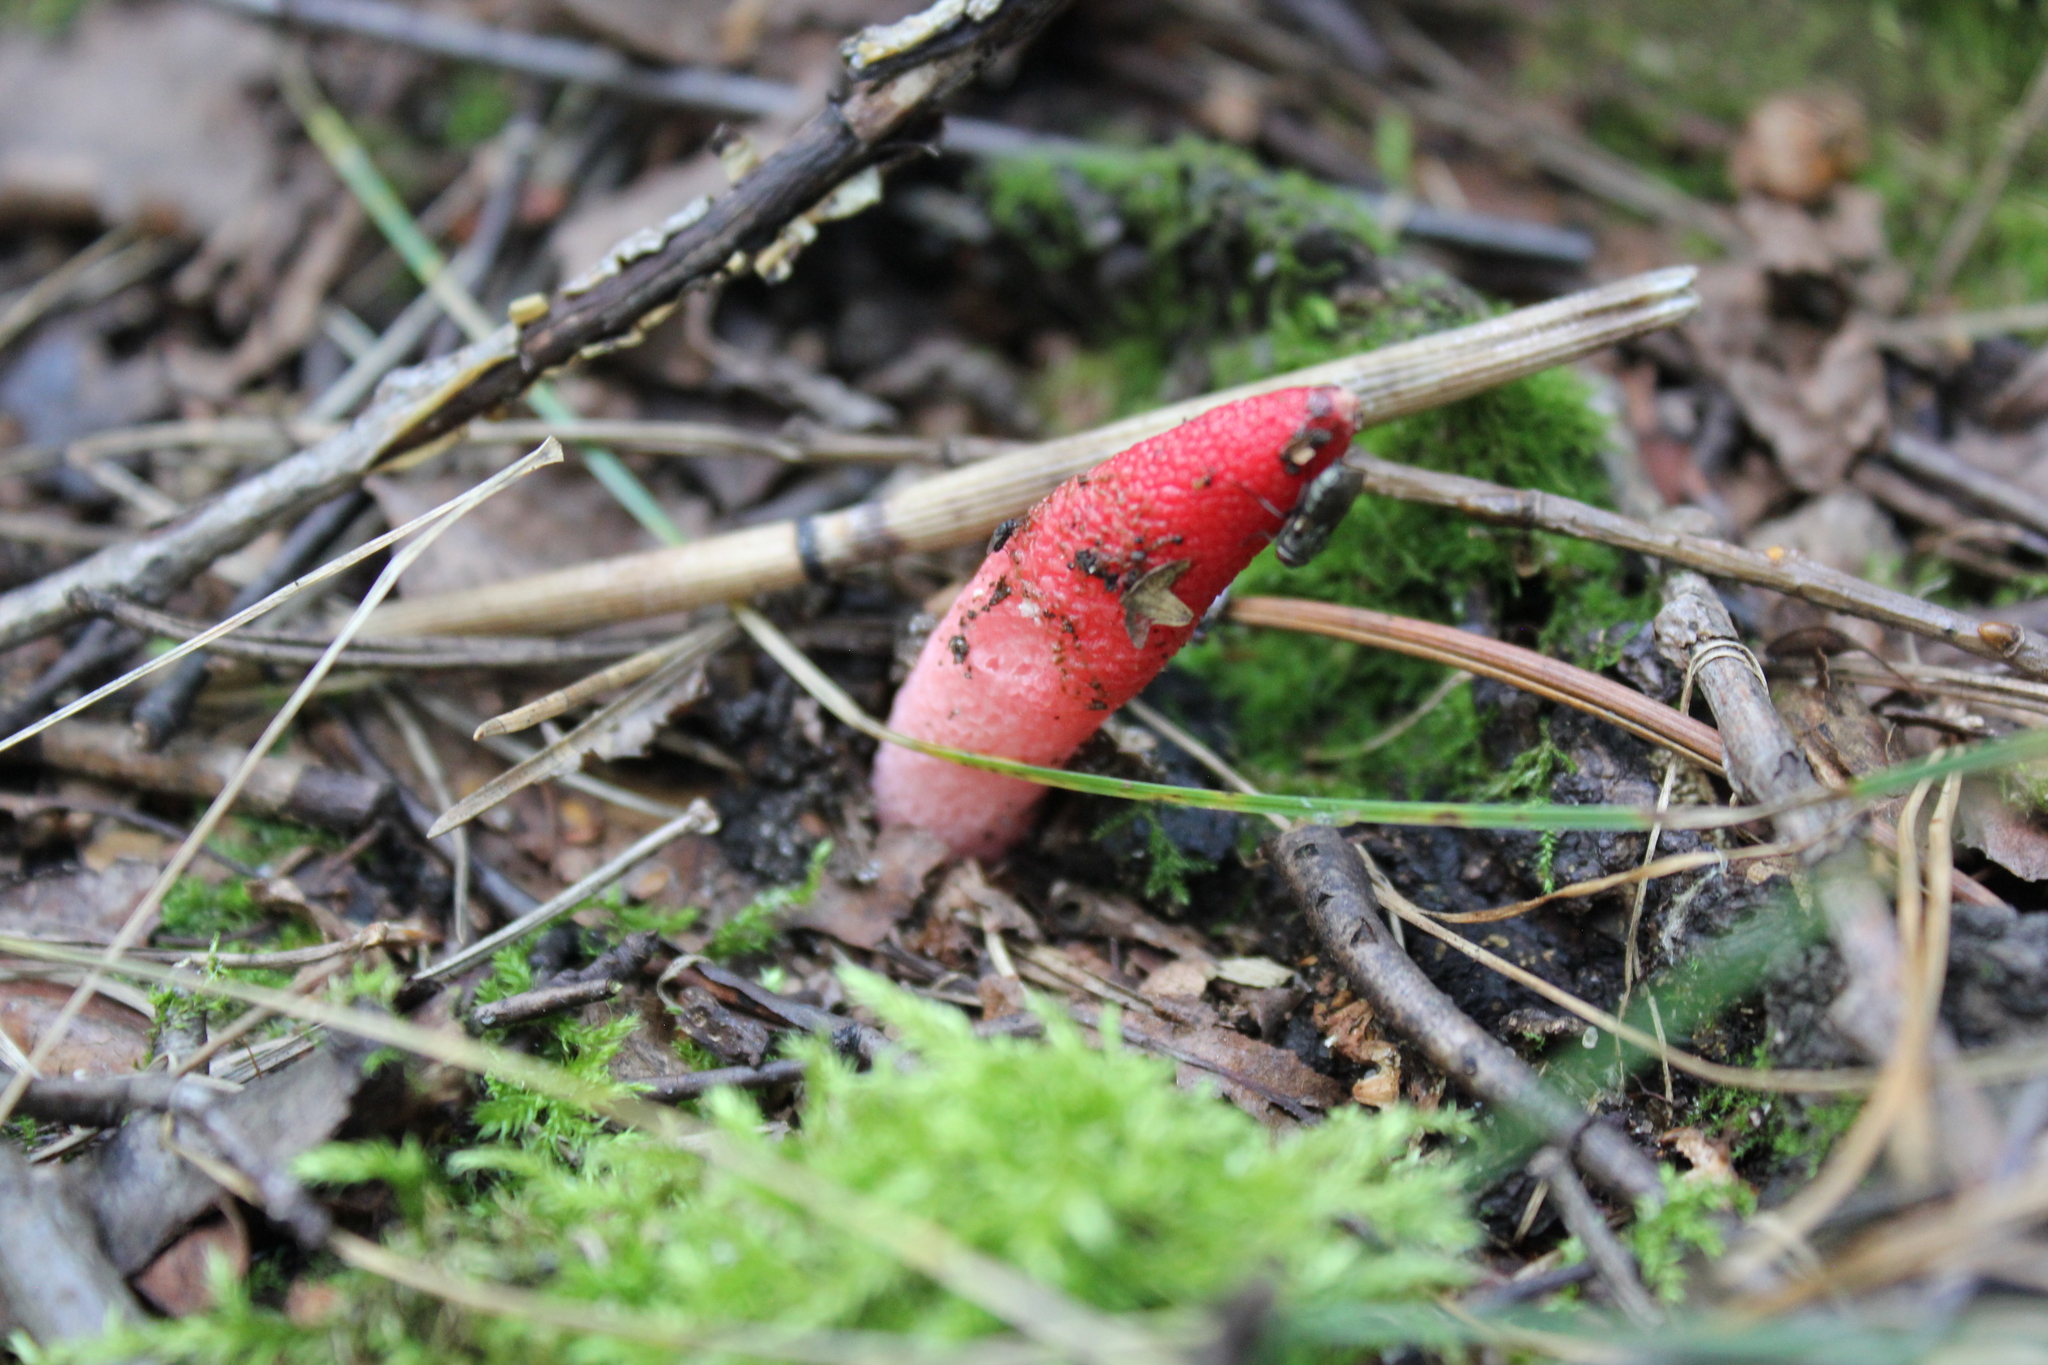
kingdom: Fungi
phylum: Basidiomycota
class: Agaricomycetes
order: Phallales
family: Phallaceae
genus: Mutinus
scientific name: Mutinus ravenelii
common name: Red stinkhorn
